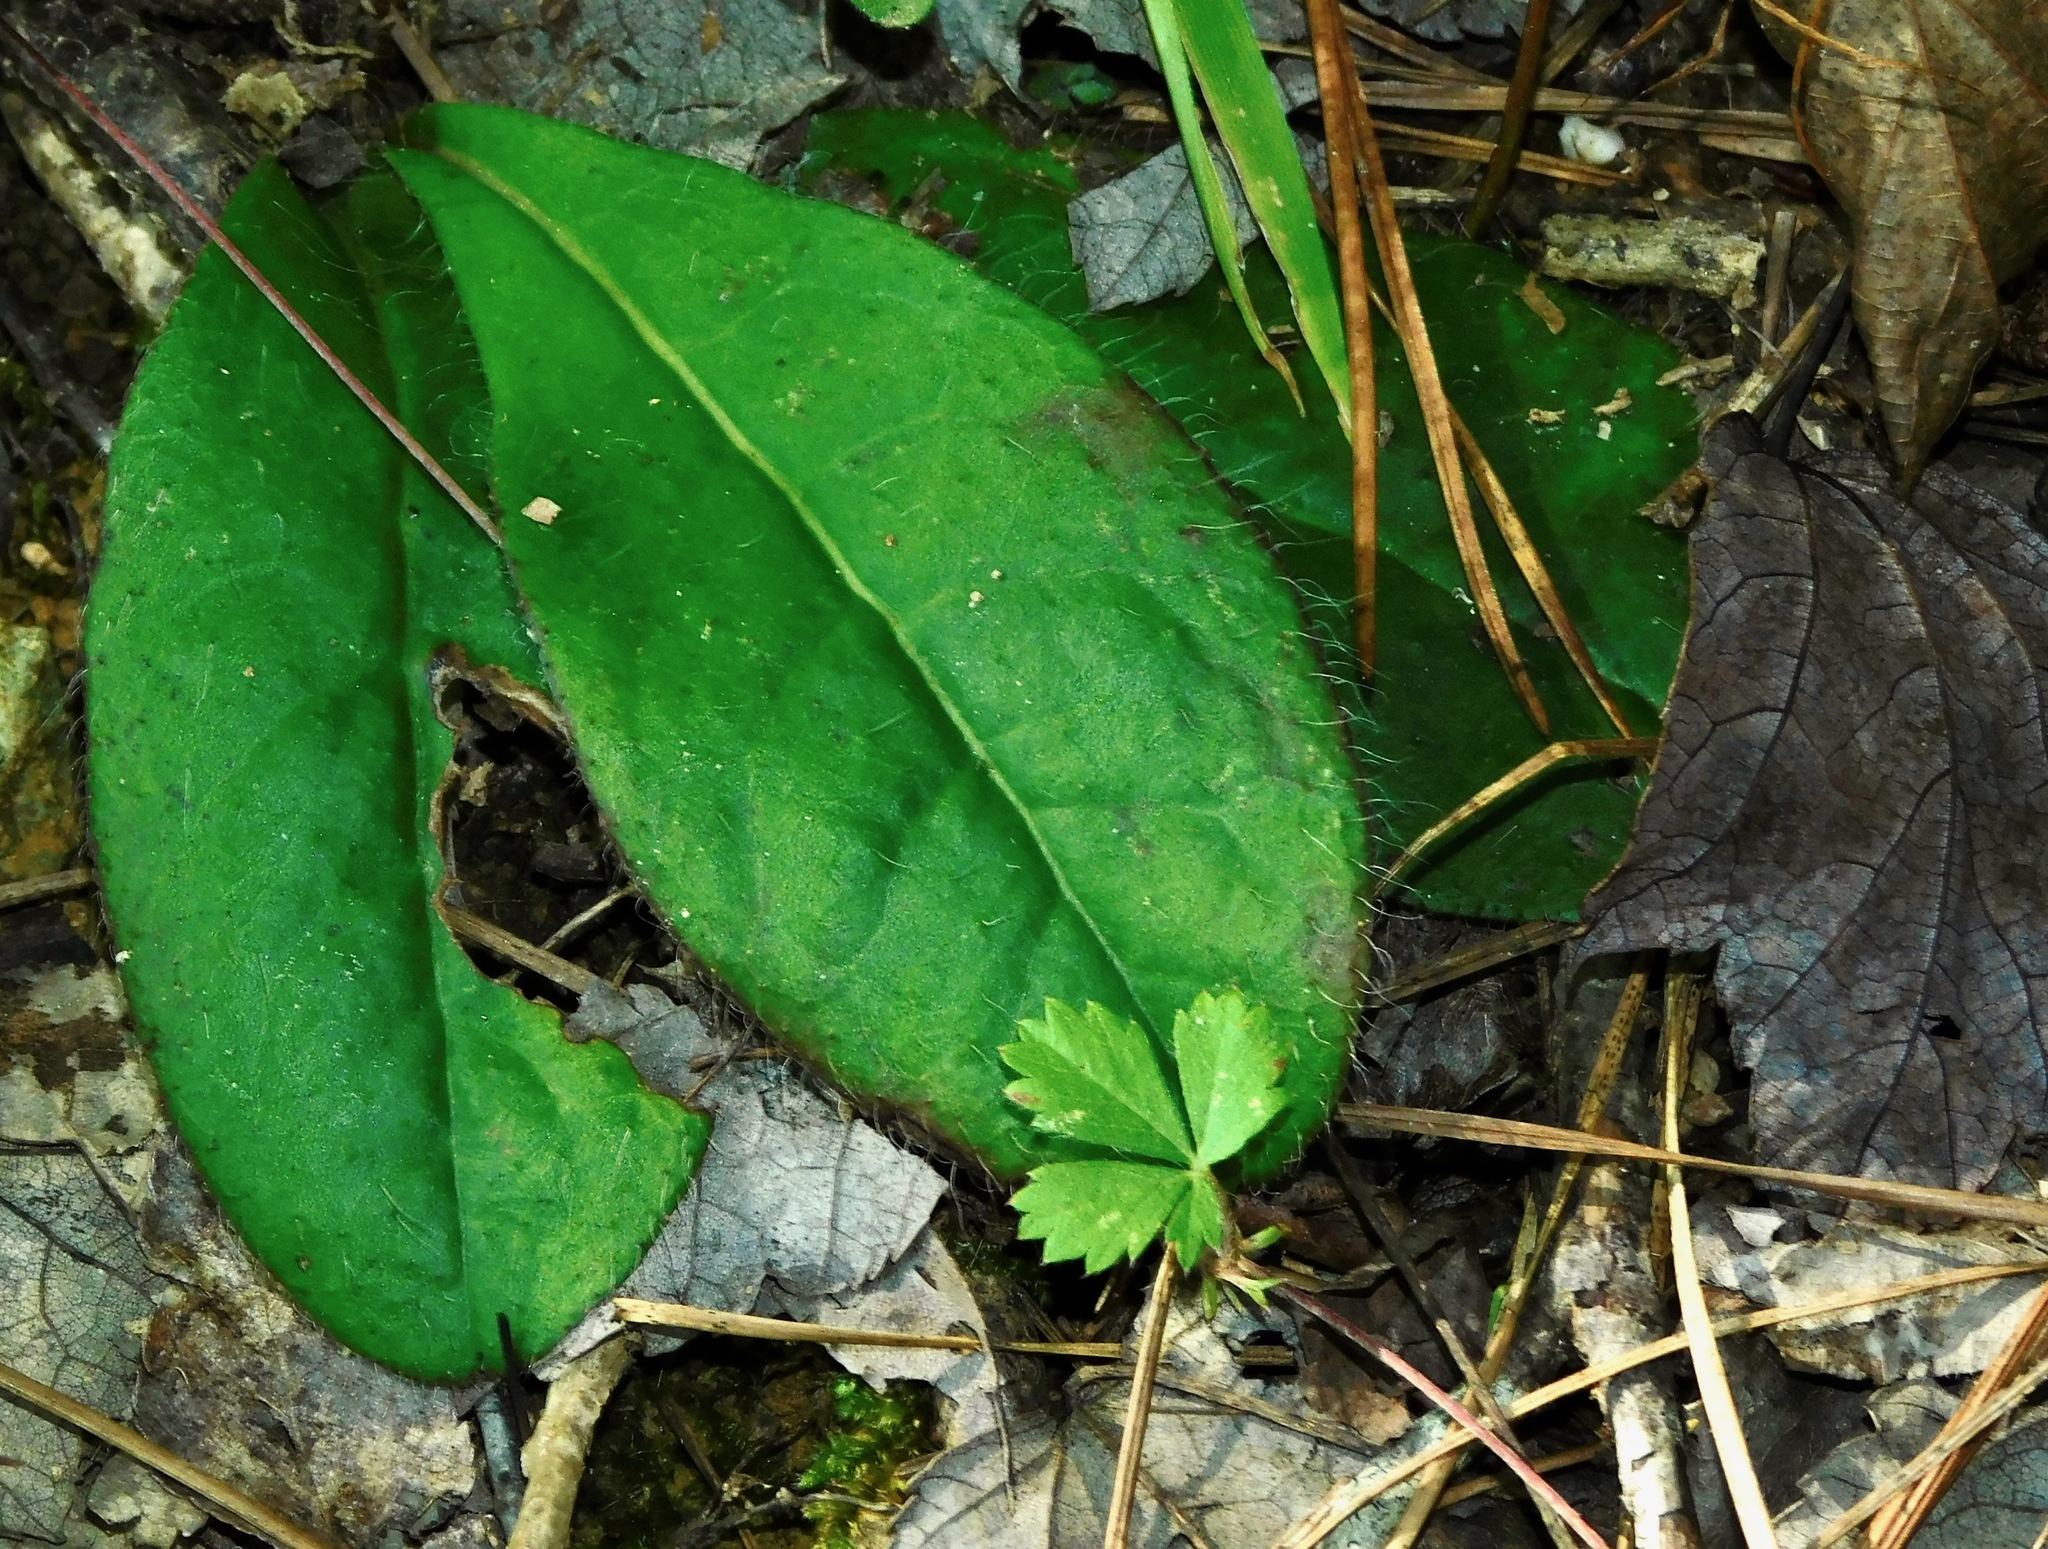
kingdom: Plantae
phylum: Tracheophyta
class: Magnoliopsida
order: Asterales
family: Asteraceae
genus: Hieracium
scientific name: Hieracium gronovii
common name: Beaked hawkweed
